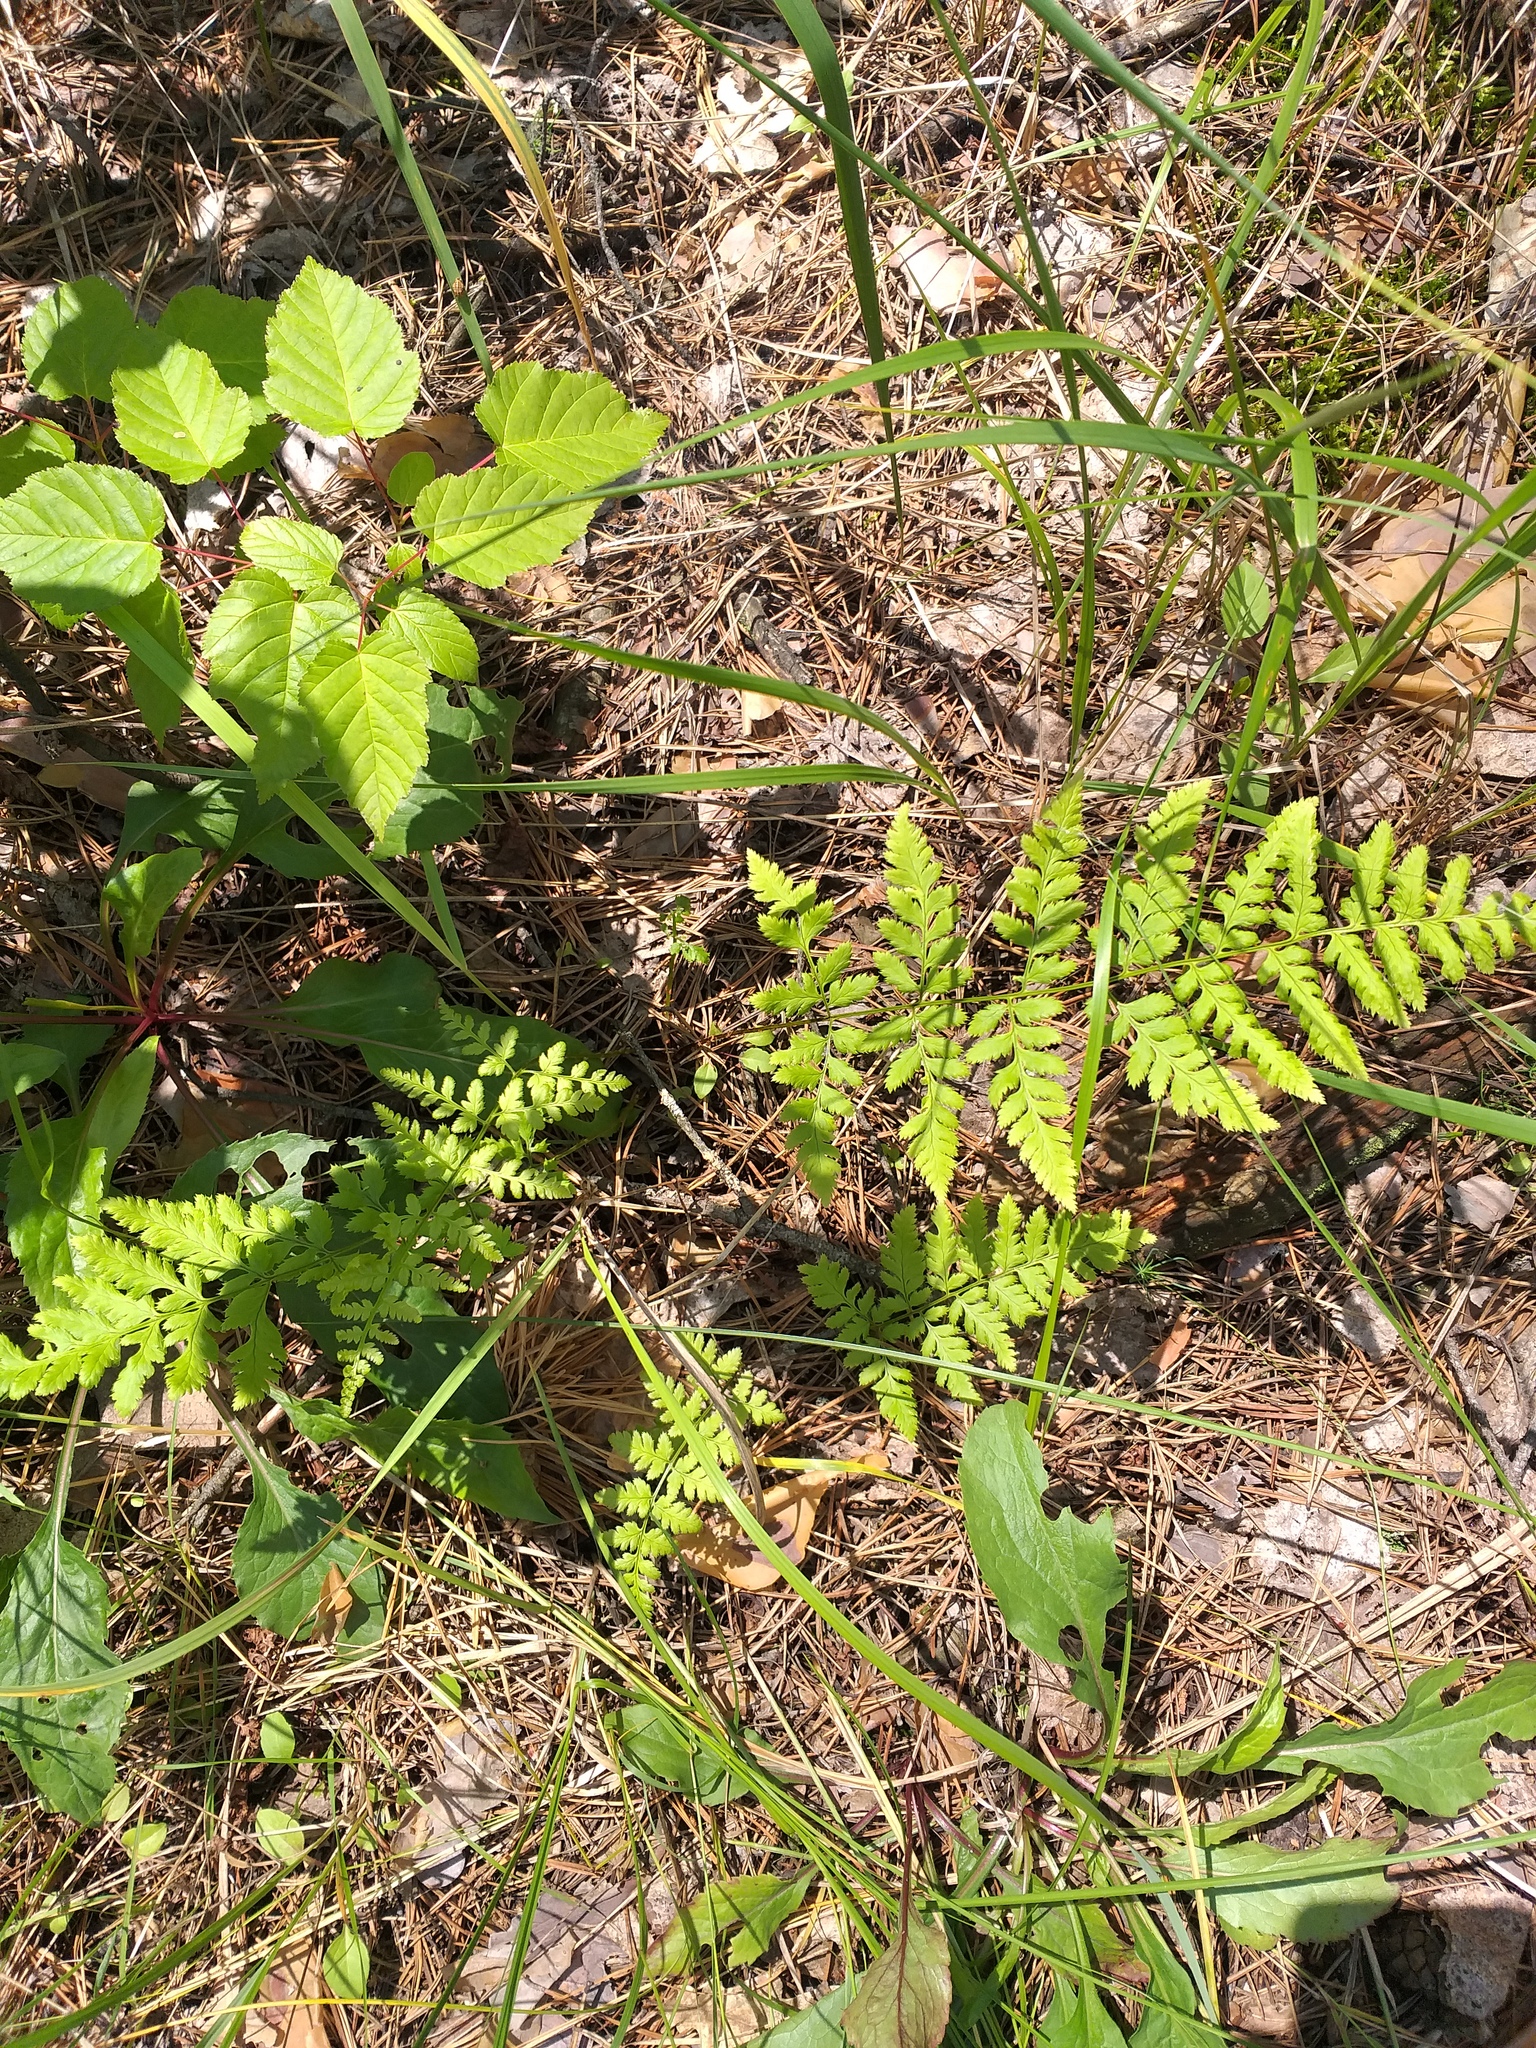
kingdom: Plantae
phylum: Tracheophyta
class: Polypodiopsida
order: Polypodiales
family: Dryopteridaceae
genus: Dryopteris
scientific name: Dryopteris carthusiana
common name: Narrow buckler-fern
